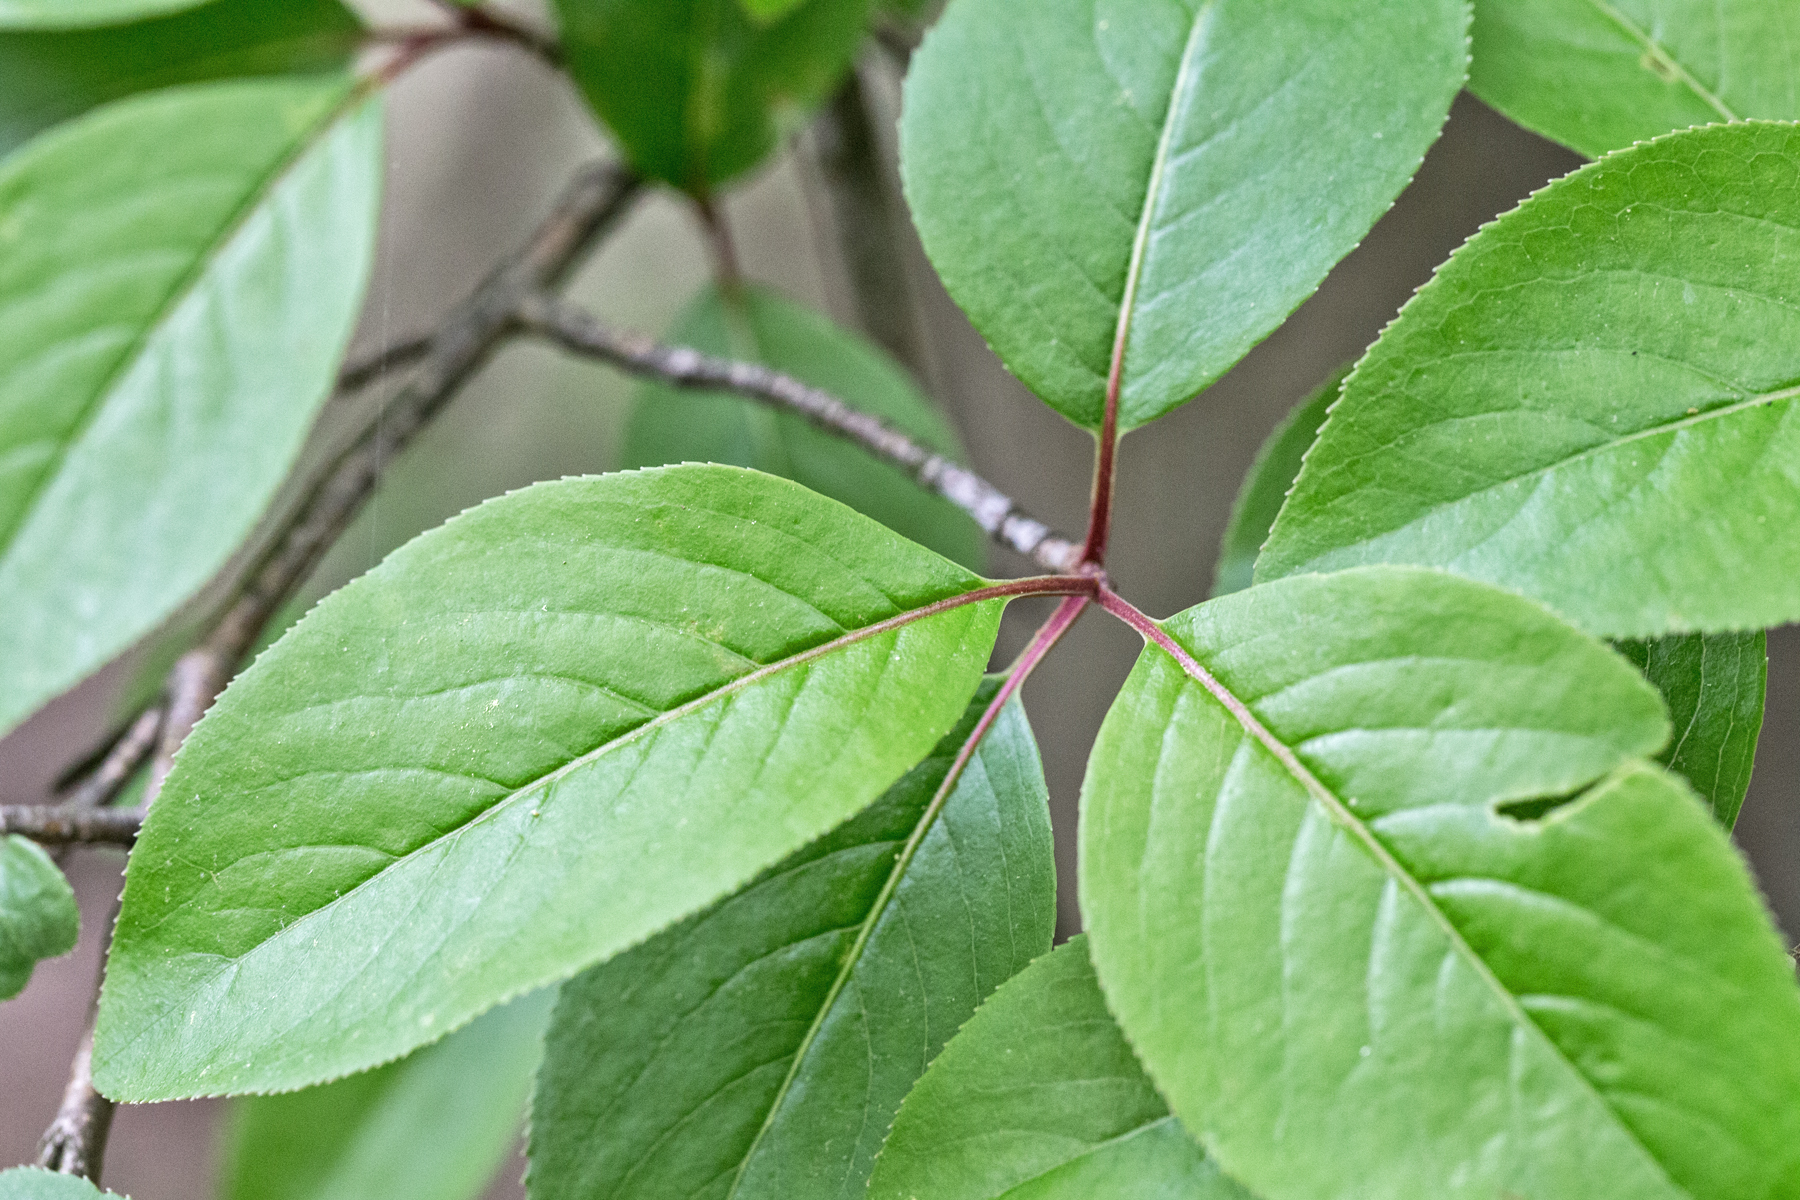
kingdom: Plantae
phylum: Tracheophyta
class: Magnoliopsida
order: Dipsacales
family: Viburnaceae
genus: Viburnum
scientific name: Viburnum prunifolium
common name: Black haw
